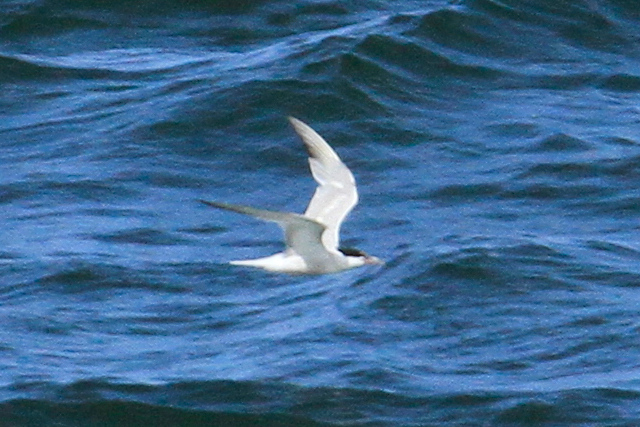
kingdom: Animalia
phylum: Chordata
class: Aves
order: Charadriiformes
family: Laridae
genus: Sterna
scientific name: Sterna hirundo
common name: Common tern
